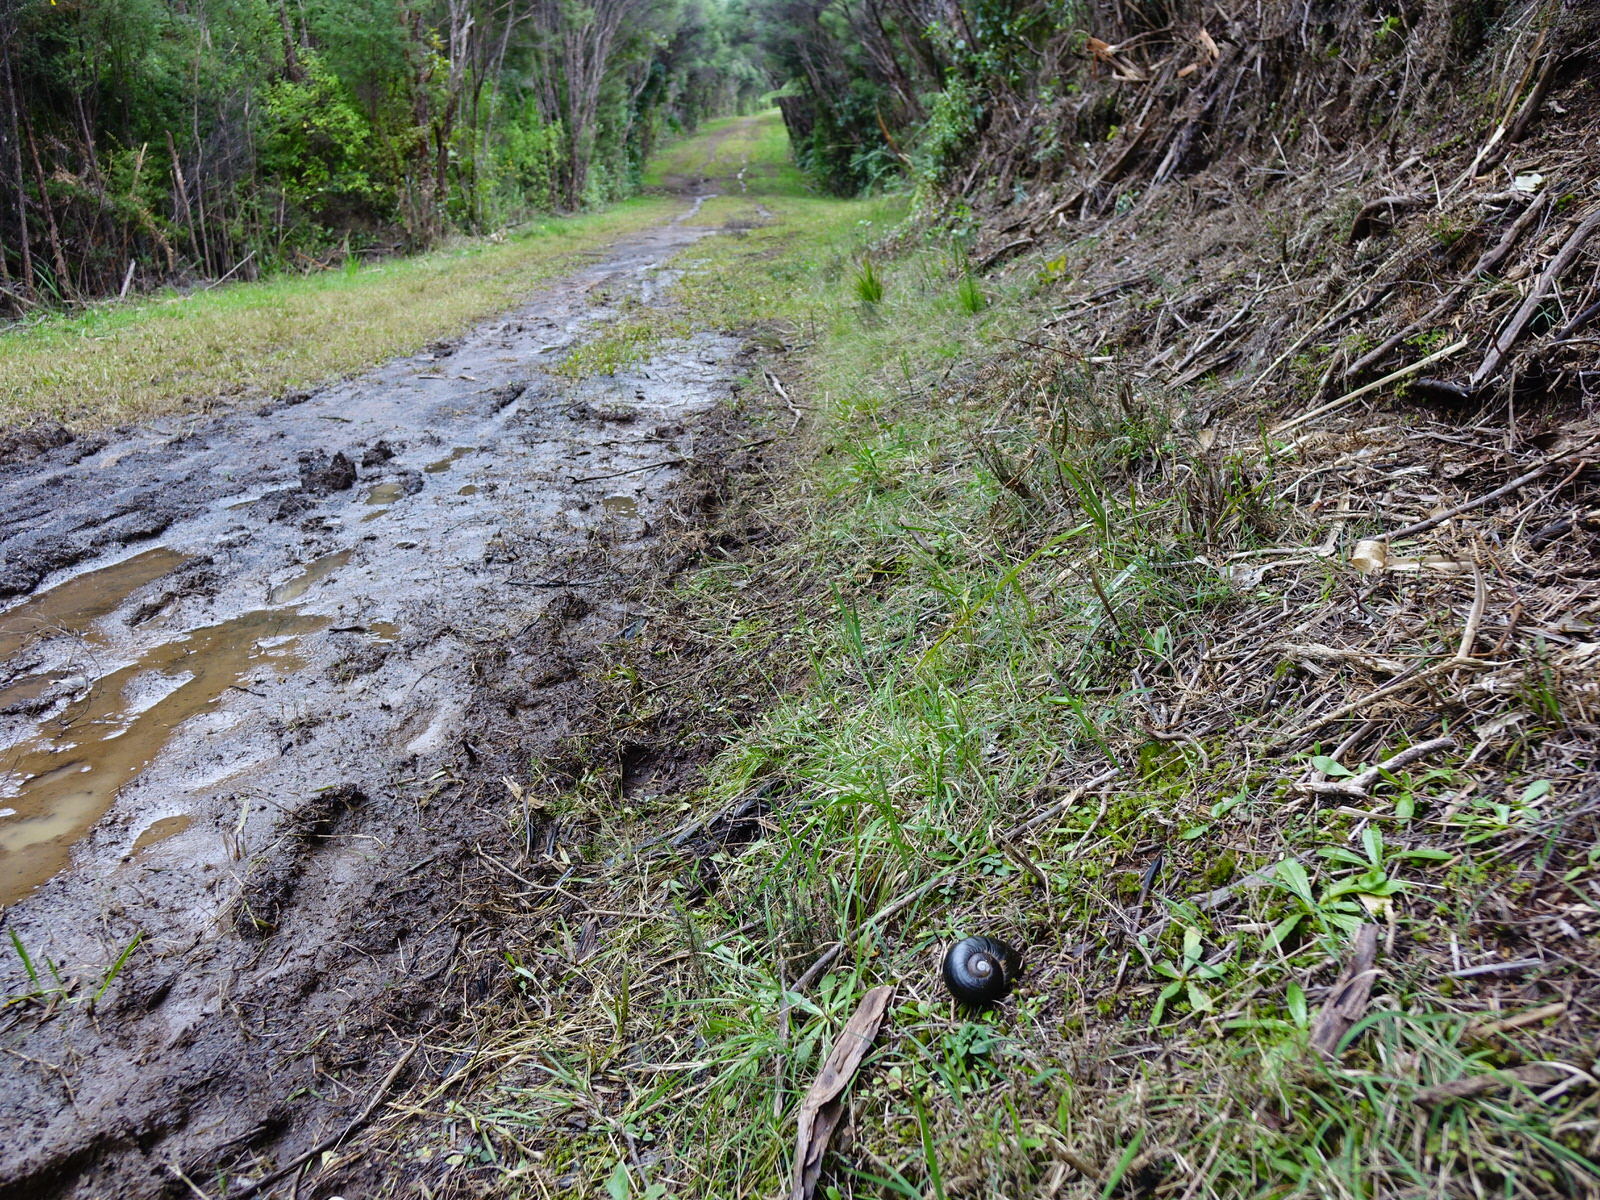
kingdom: Animalia
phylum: Mollusca
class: Gastropoda
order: Stylommatophora
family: Rhytididae
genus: Paryphanta
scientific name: Paryphanta busbyi
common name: Kauri snail
